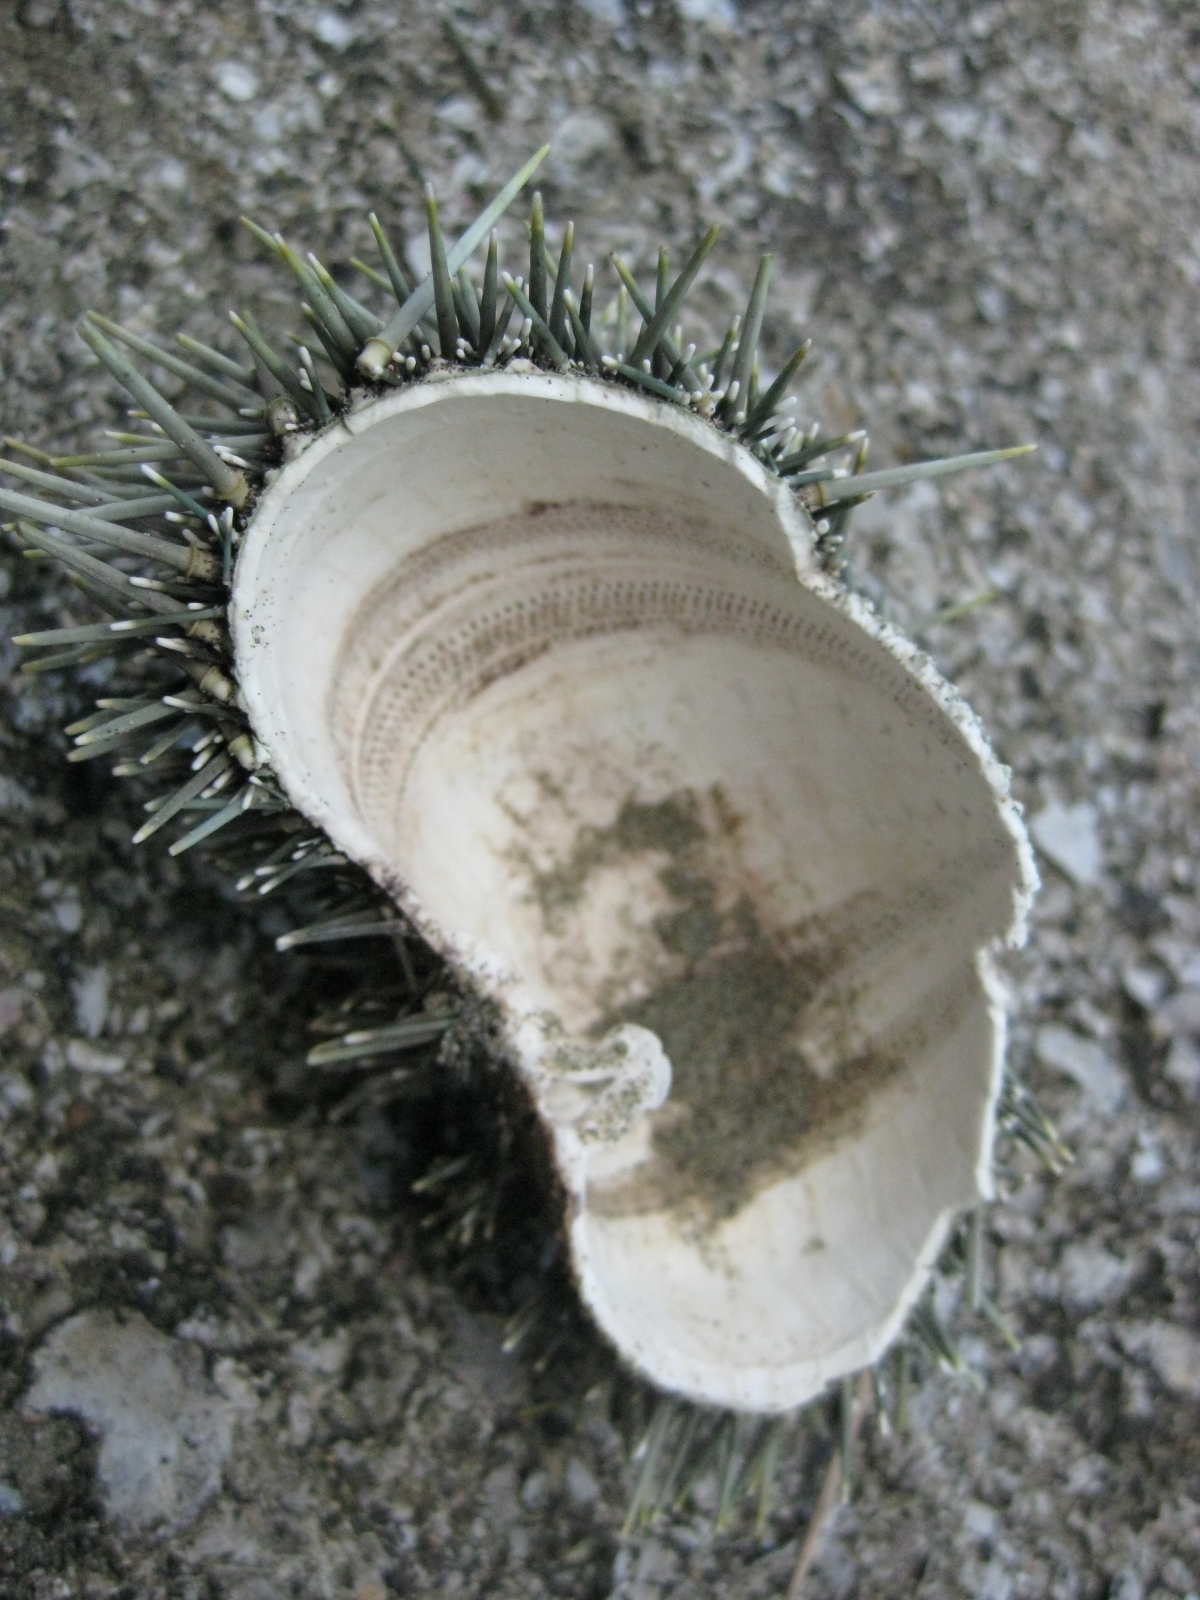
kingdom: Animalia
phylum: Echinodermata
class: Echinoidea
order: Camarodonta
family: Echinometridae
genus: Evechinus
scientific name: Evechinus chloroticus
